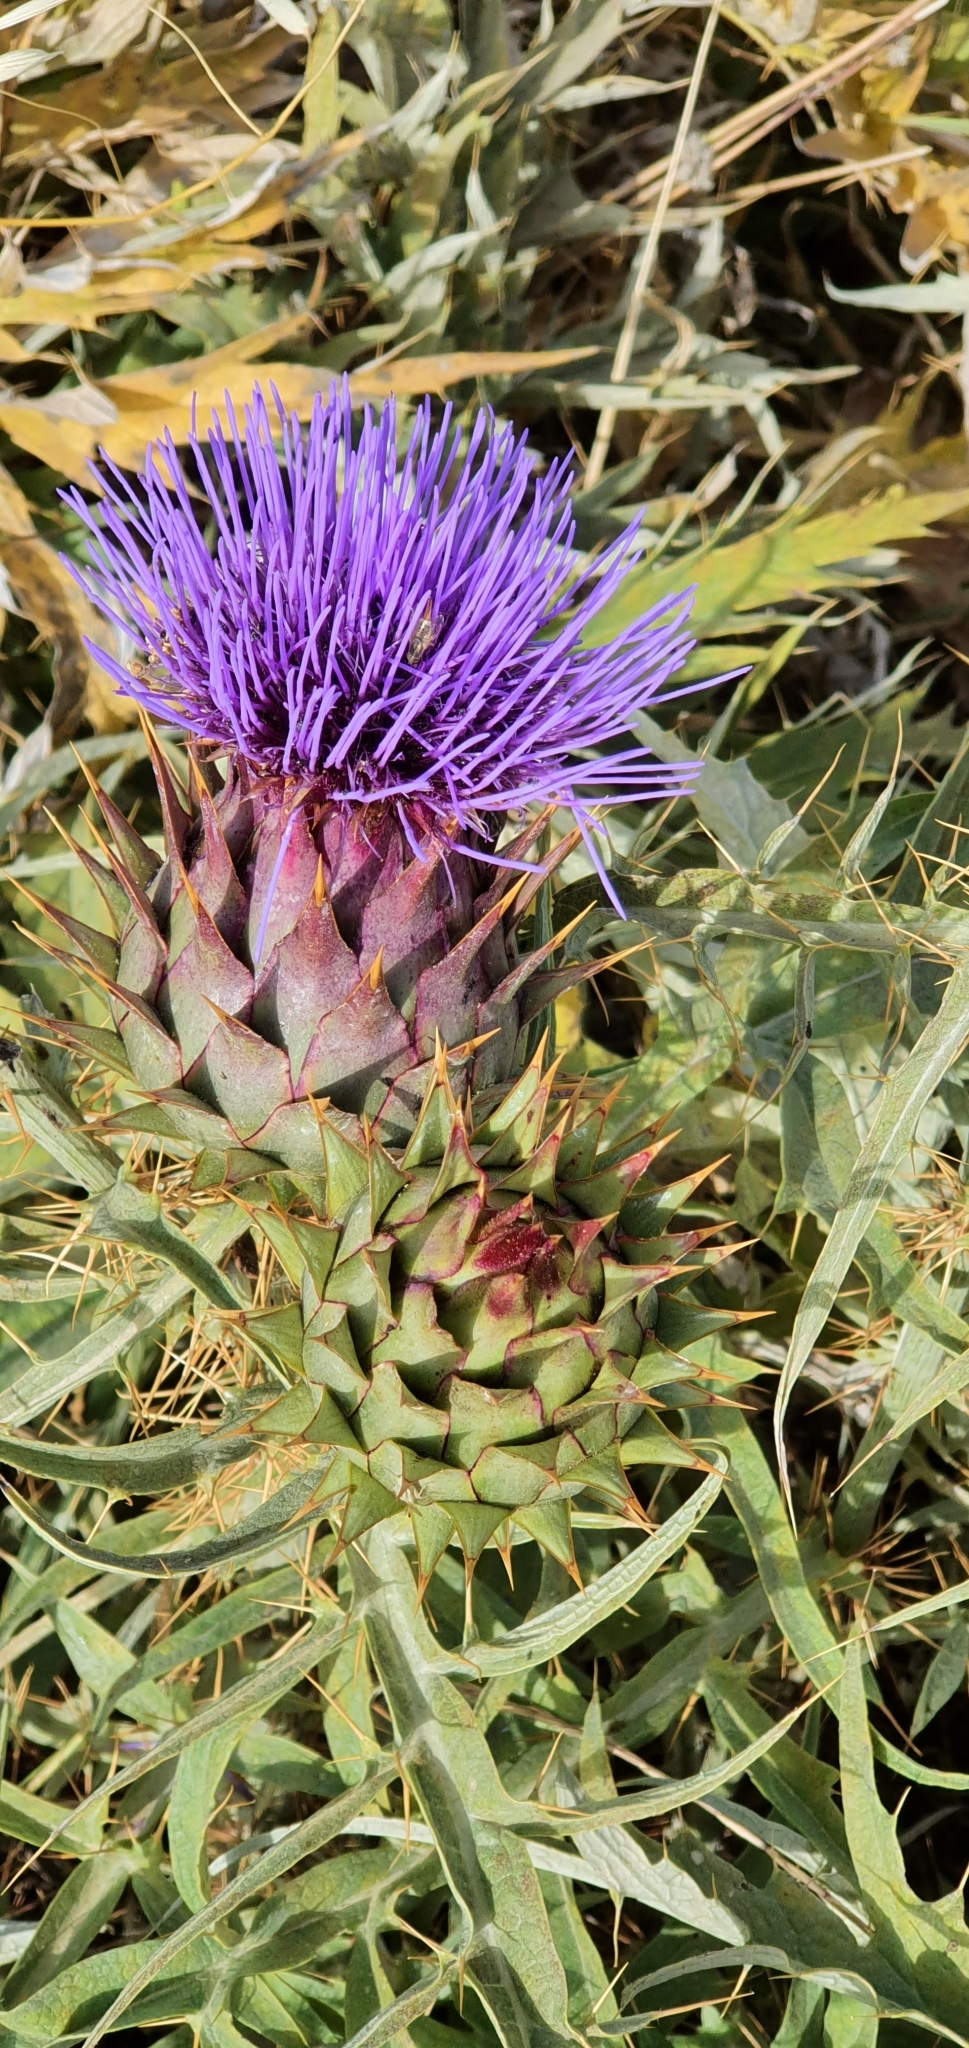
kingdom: Plantae
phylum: Tracheophyta
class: Magnoliopsida
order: Asterales
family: Asteraceae
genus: Cynara
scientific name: Cynara cardunculus
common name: Globe artichoke
